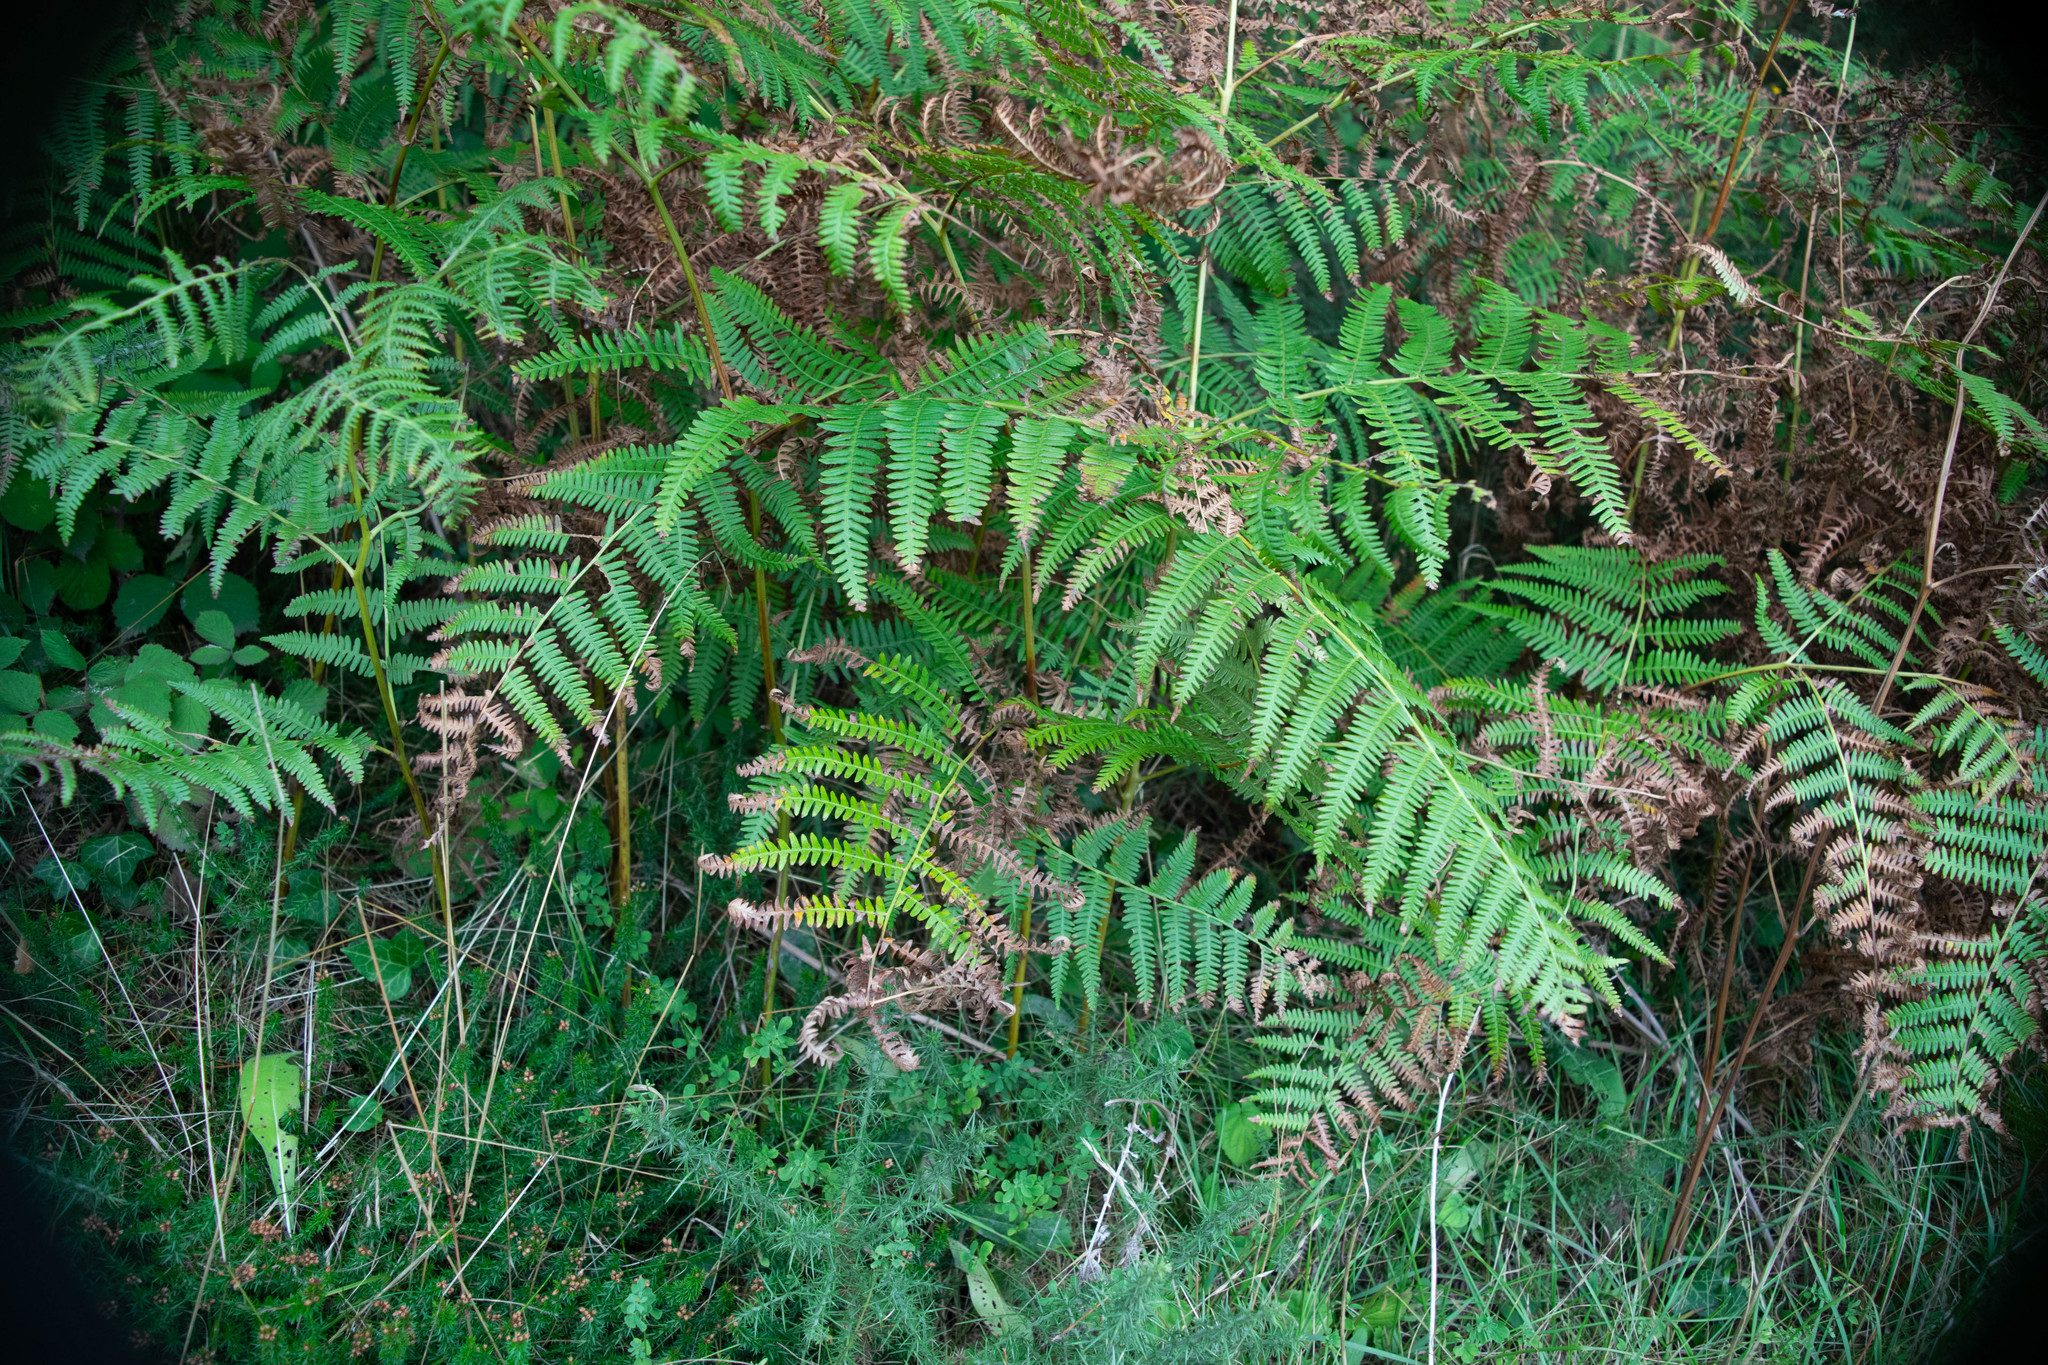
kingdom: Plantae
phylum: Tracheophyta
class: Polypodiopsida
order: Polypodiales
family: Dennstaedtiaceae
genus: Pteridium
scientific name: Pteridium aquilinum
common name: Bracken
